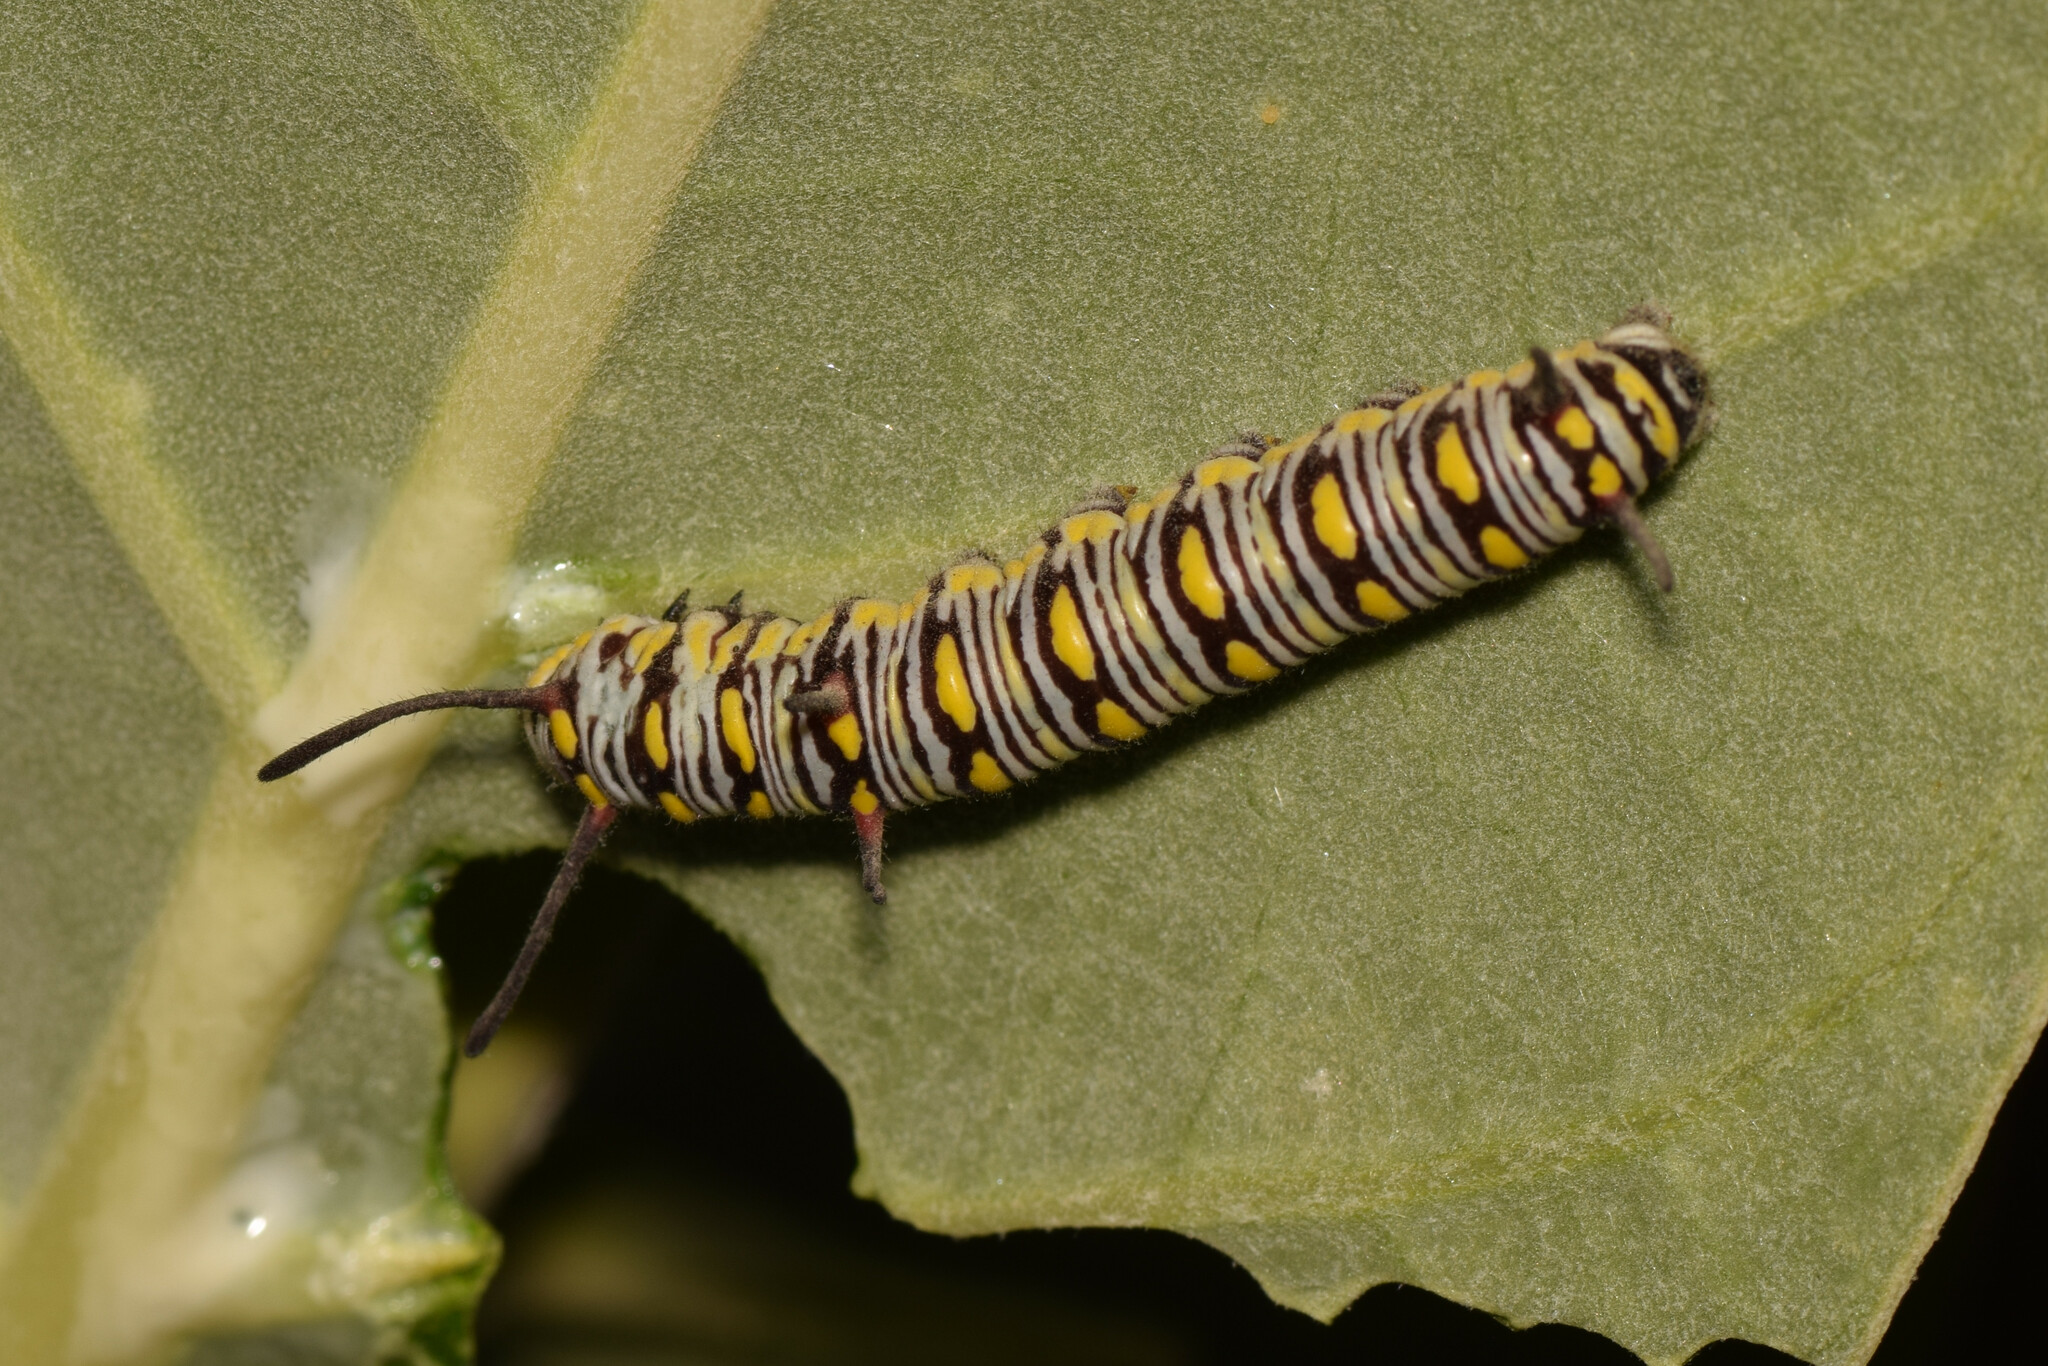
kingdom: Animalia
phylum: Arthropoda
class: Insecta
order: Lepidoptera
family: Nymphalidae
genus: Danaus
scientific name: Danaus chrysippus
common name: Plain tiger
